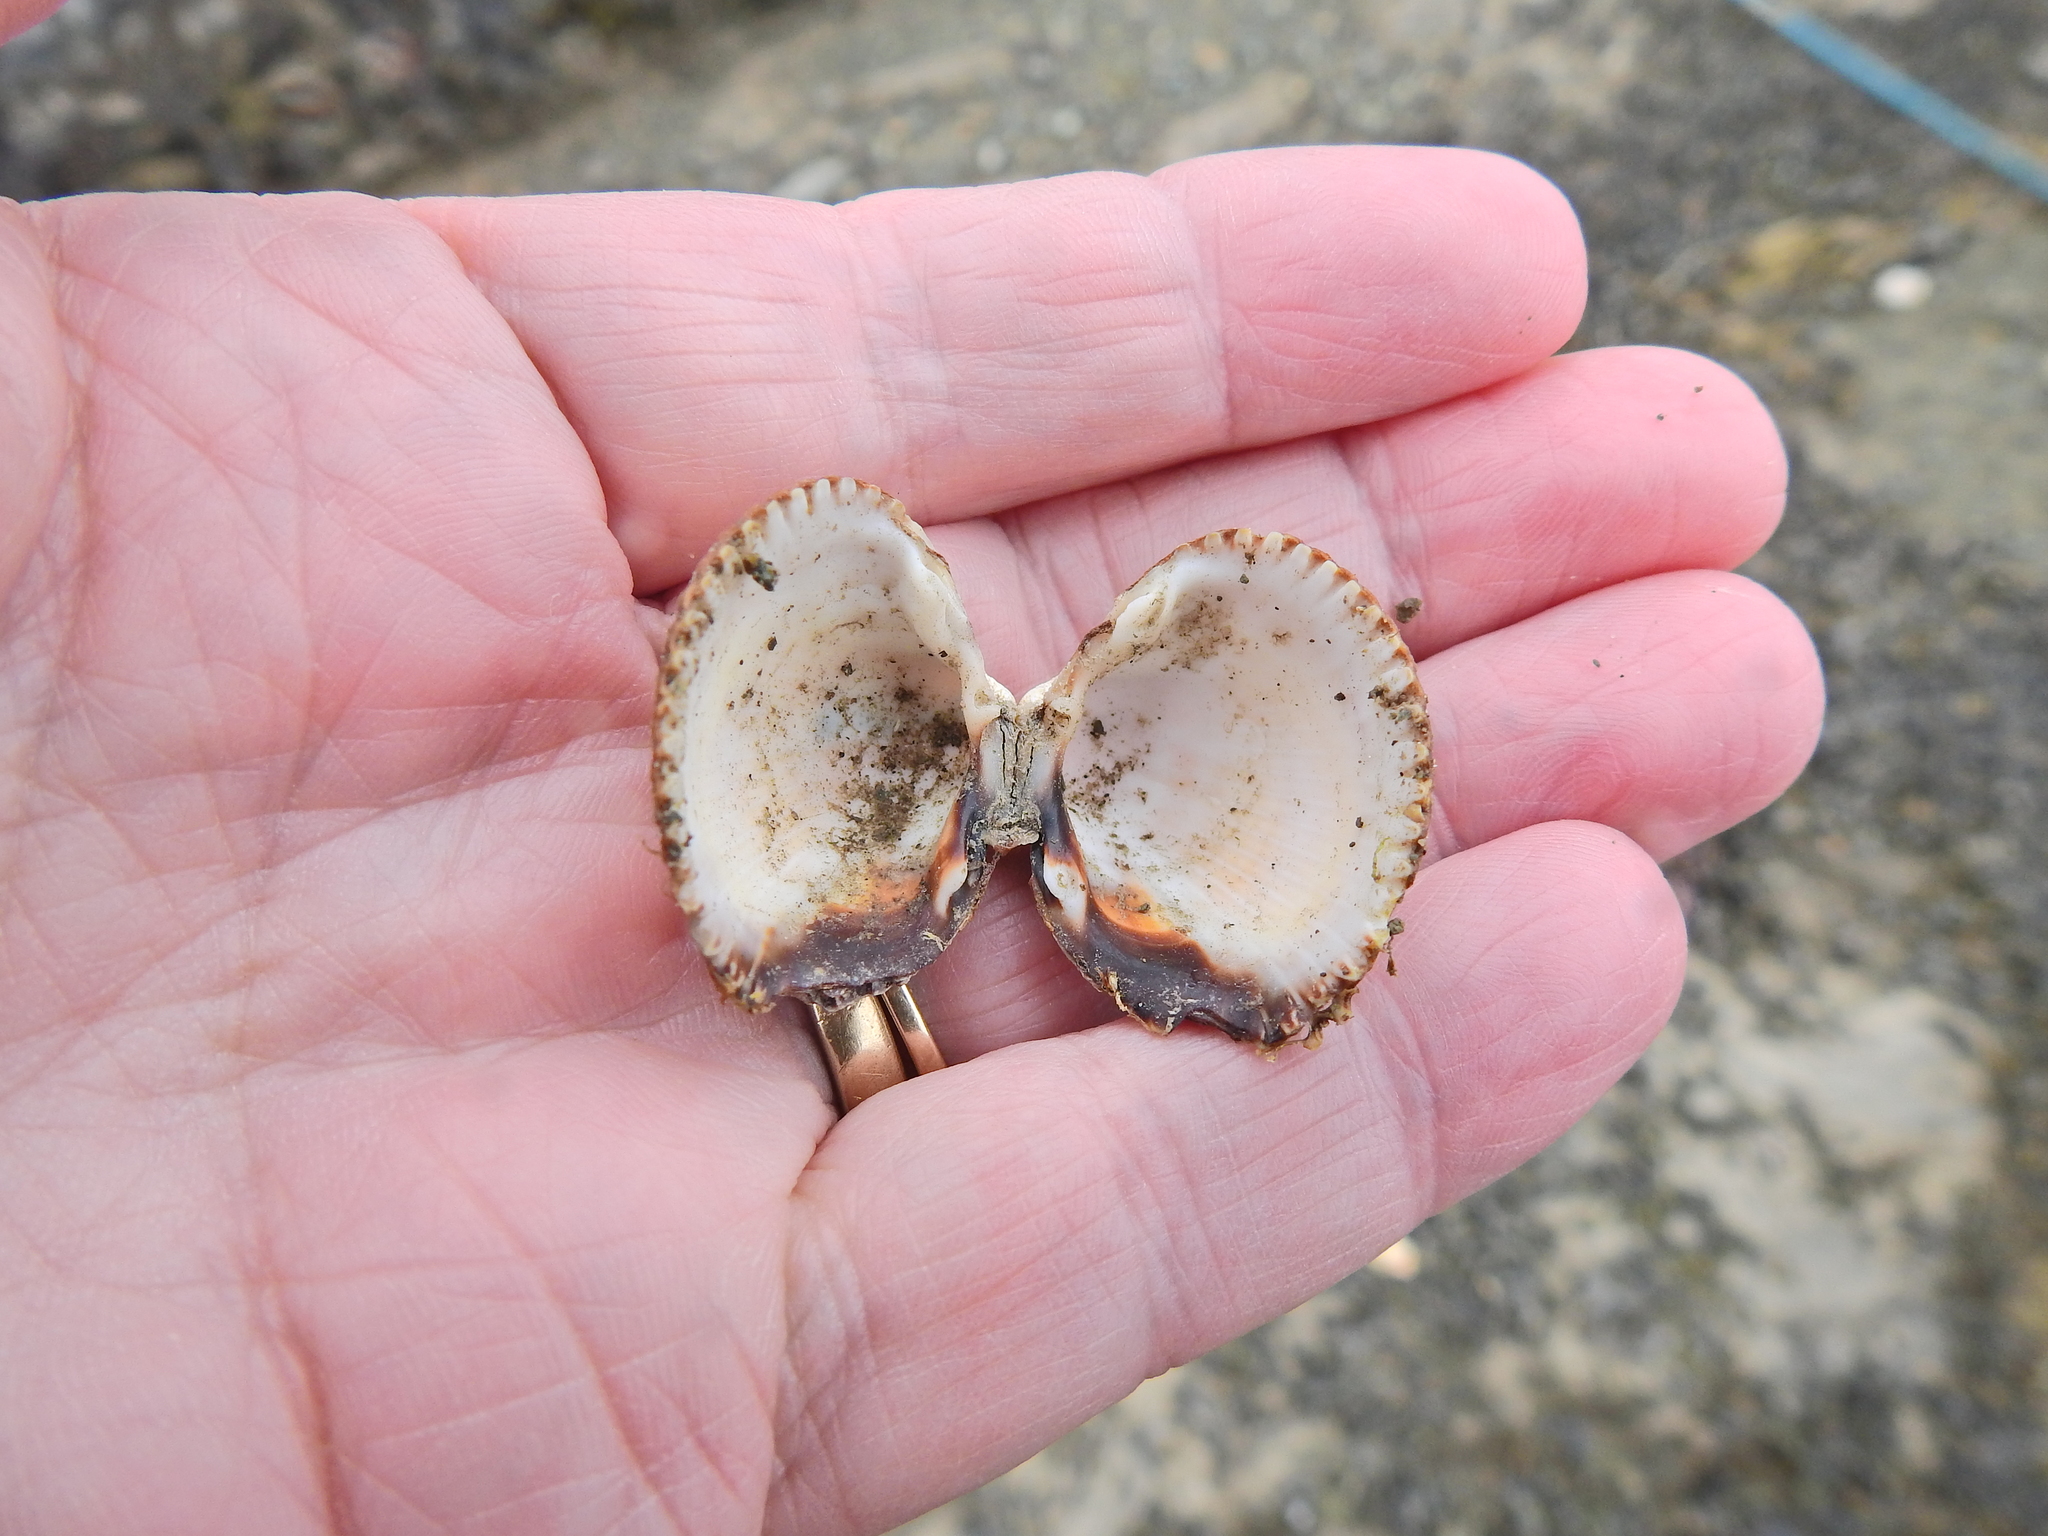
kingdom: Animalia
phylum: Mollusca
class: Bivalvia
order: Cardiida
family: Cardiidae
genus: Cerastoderma
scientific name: Cerastoderma edule
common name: Common cockle
